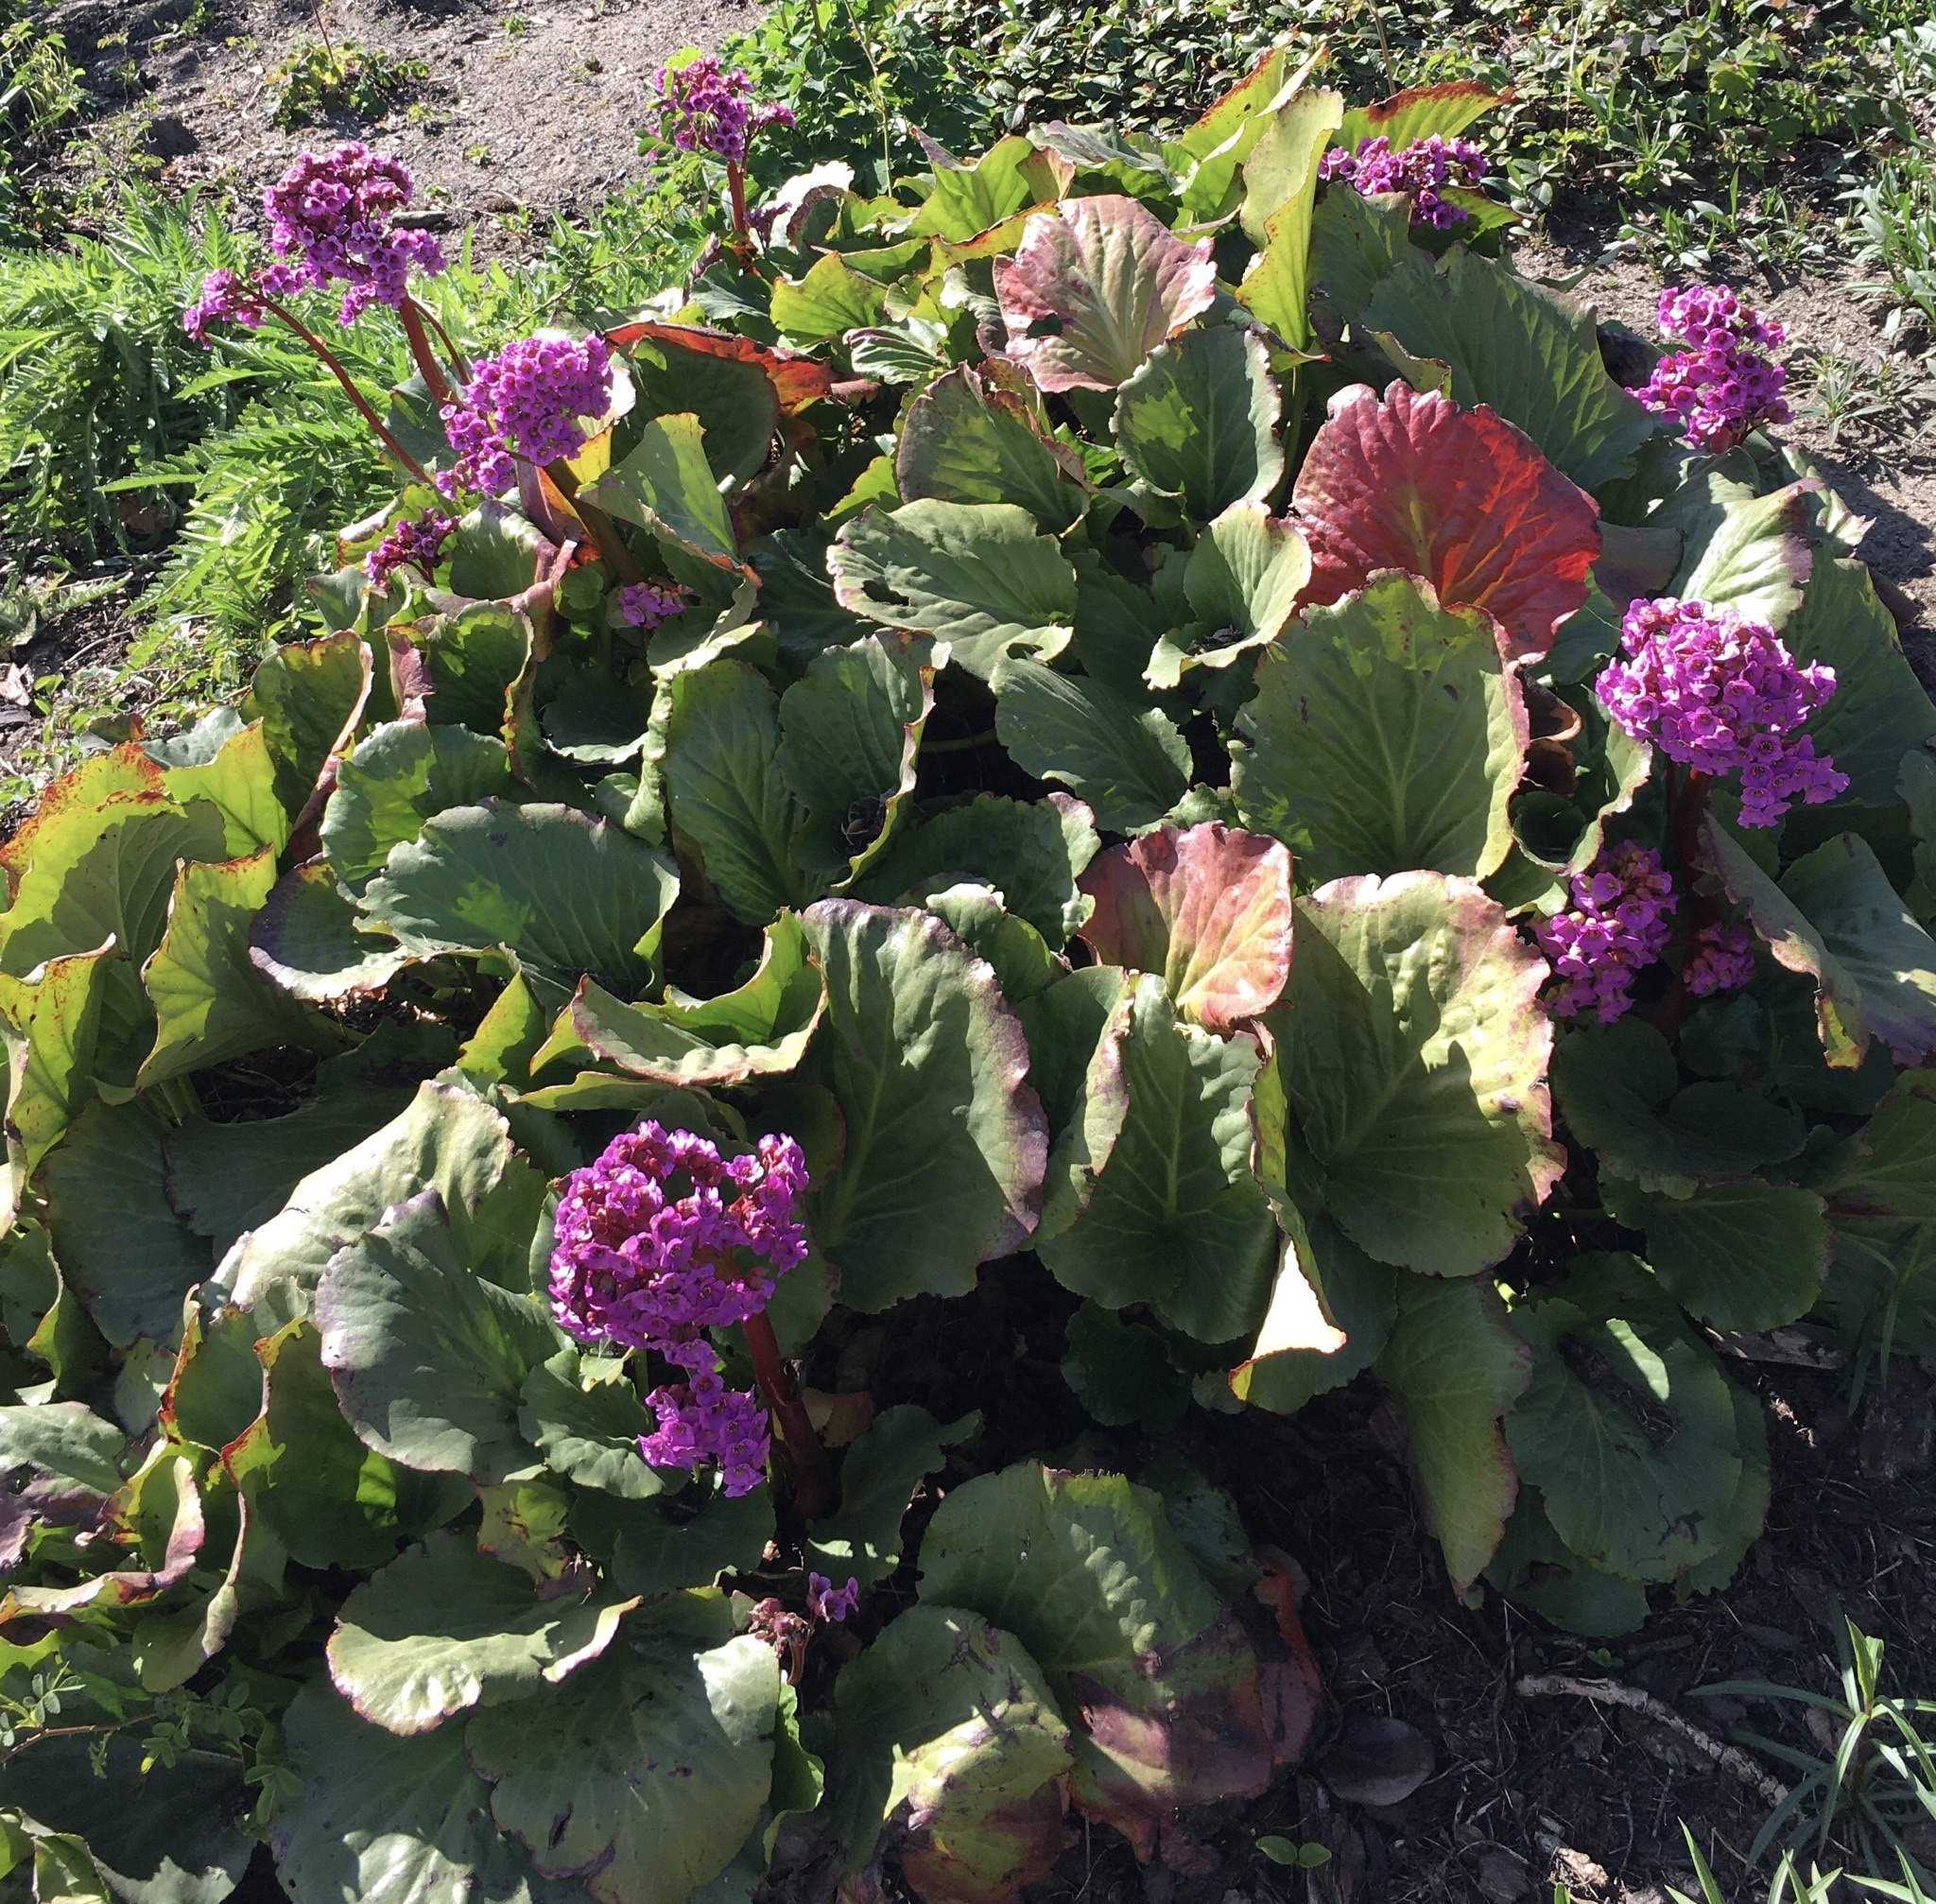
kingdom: Plantae
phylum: Tracheophyta
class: Magnoliopsida
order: Saxifragales
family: Saxifragaceae
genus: Bergenia
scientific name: Bergenia crassifolia
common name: Elephant-ears
